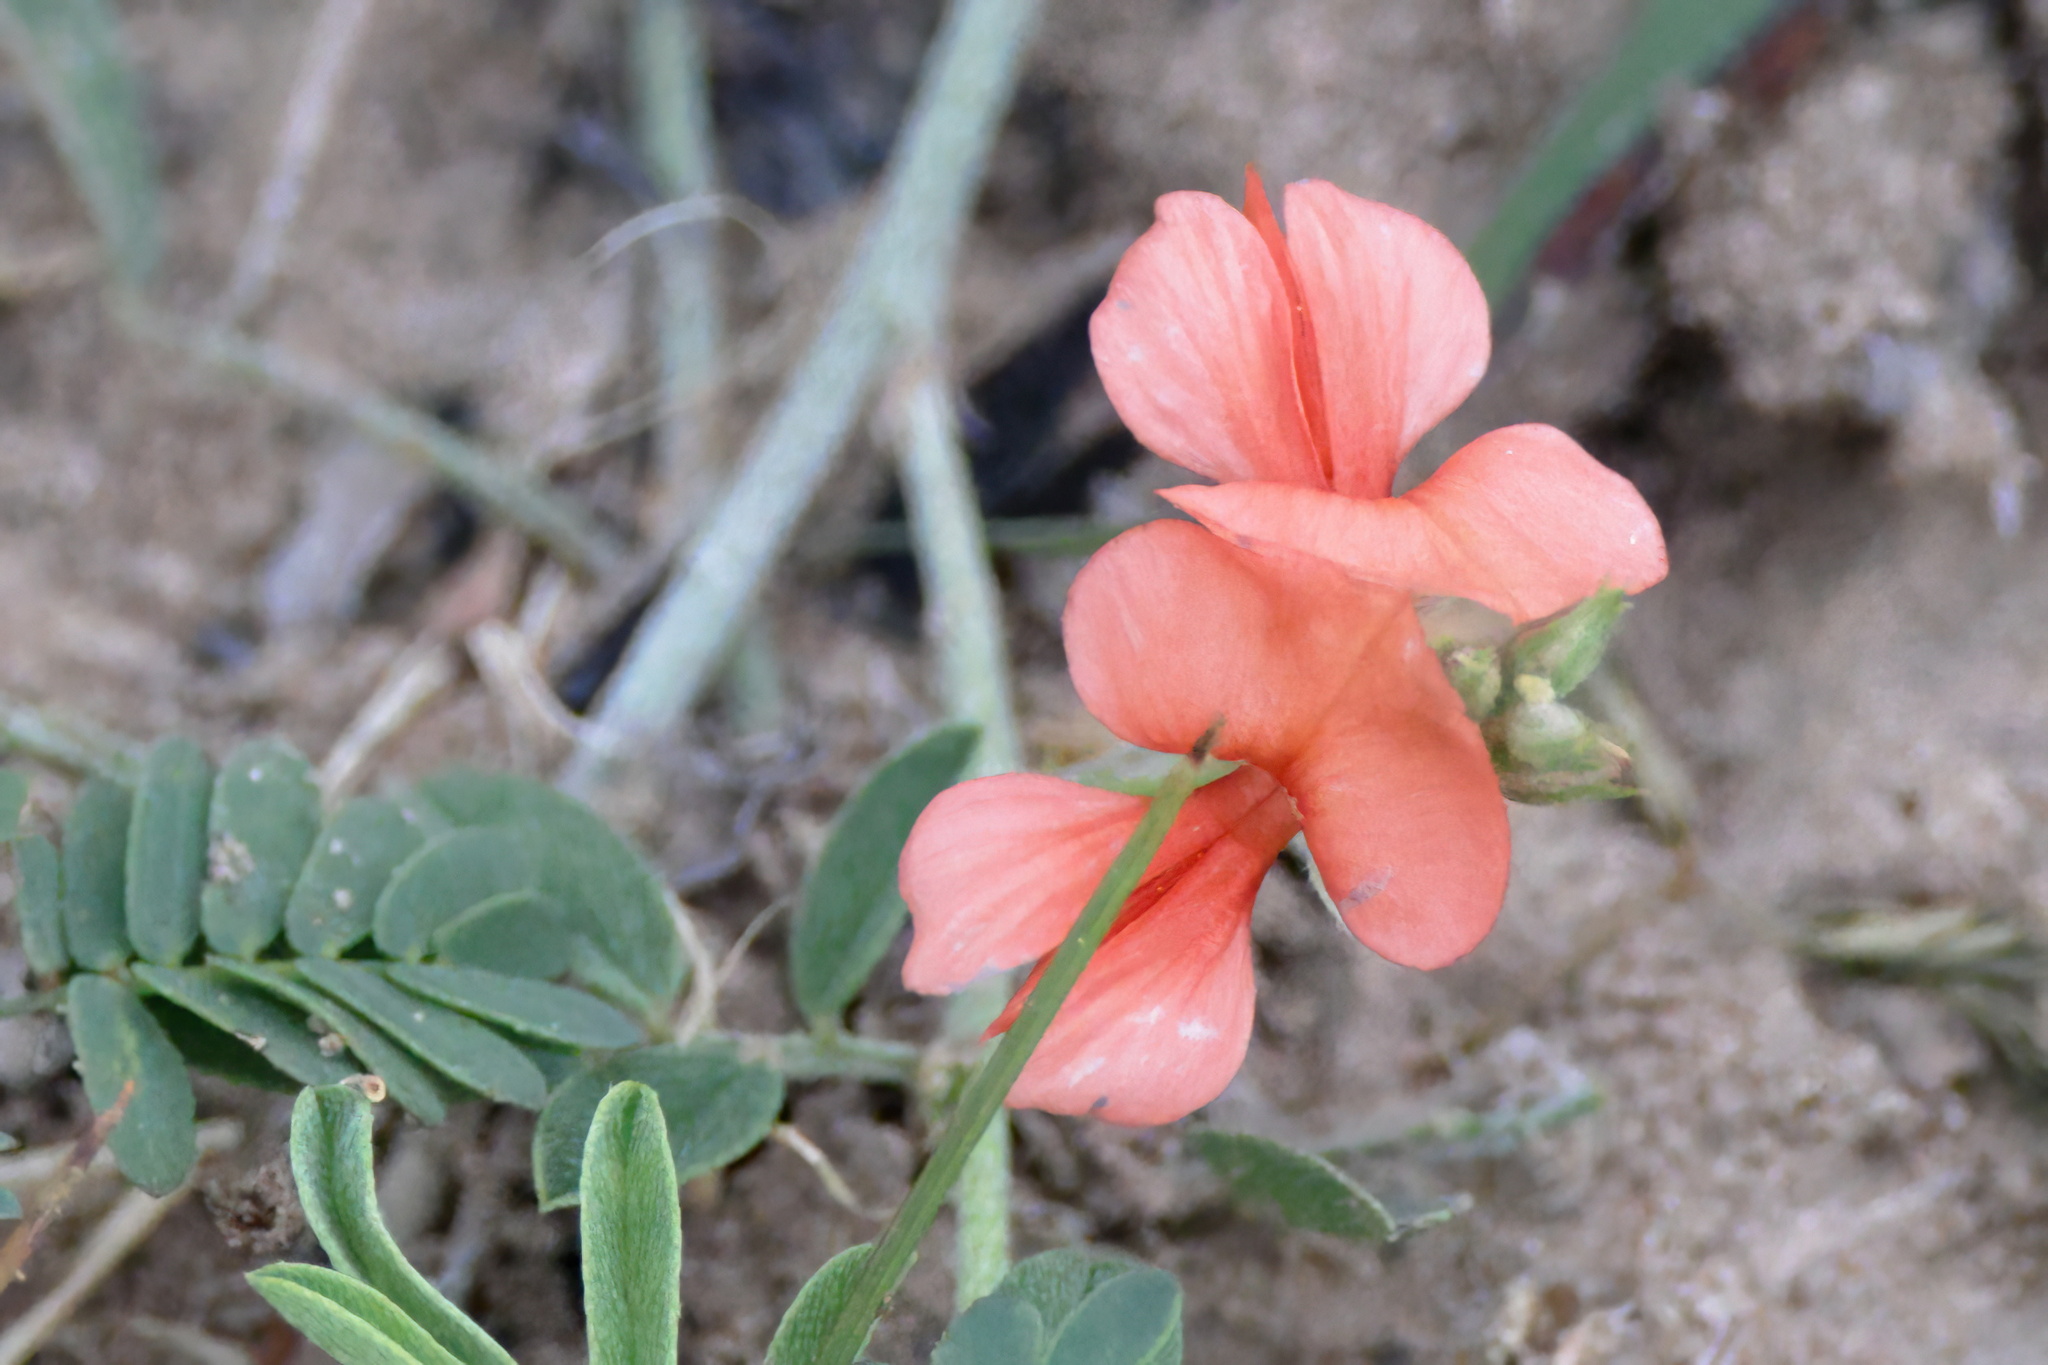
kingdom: Plantae
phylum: Tracheophyta
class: Magnoliopsida
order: Fabales
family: Fabaceae
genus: Indigofera
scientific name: Indigofera miniata
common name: Coast indigo
